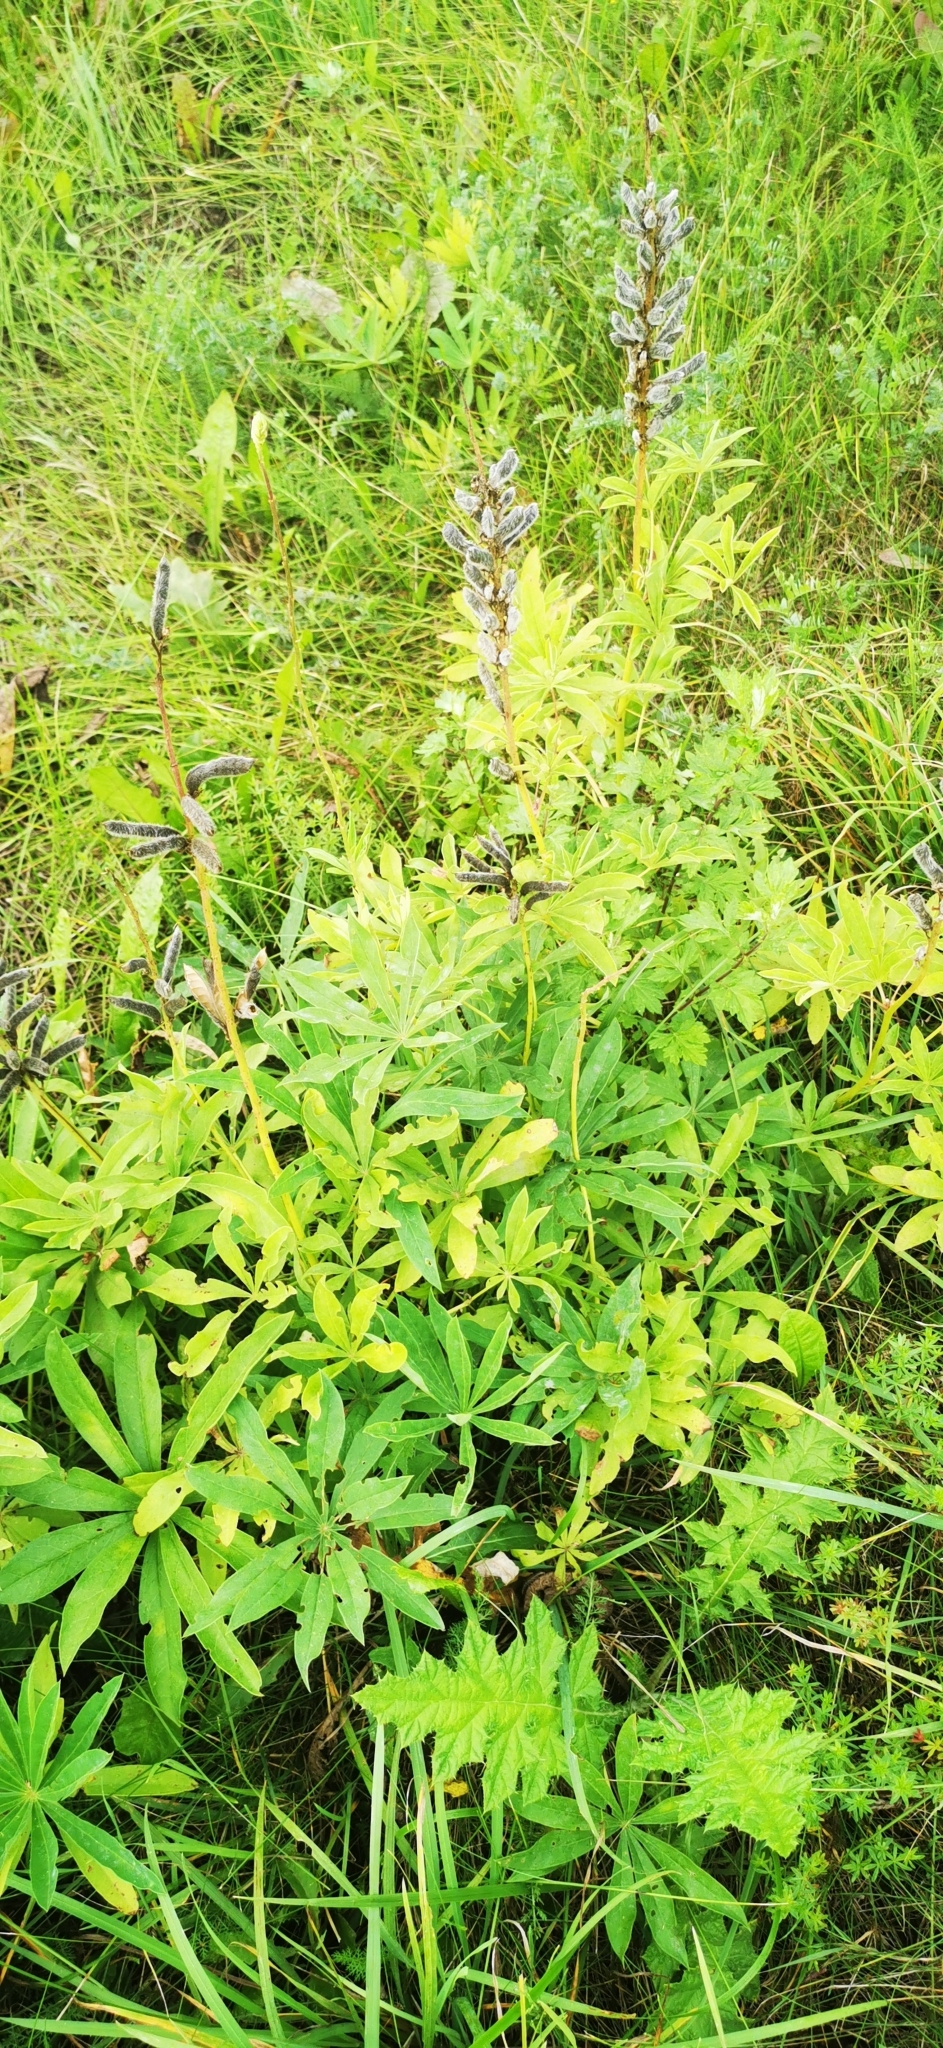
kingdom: Plantae
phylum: Tracheophyta
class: Magnoliopsida
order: Fabales
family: Fabaceae
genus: Lupinus
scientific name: Lupinus polyphyllus
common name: Garden lupin
